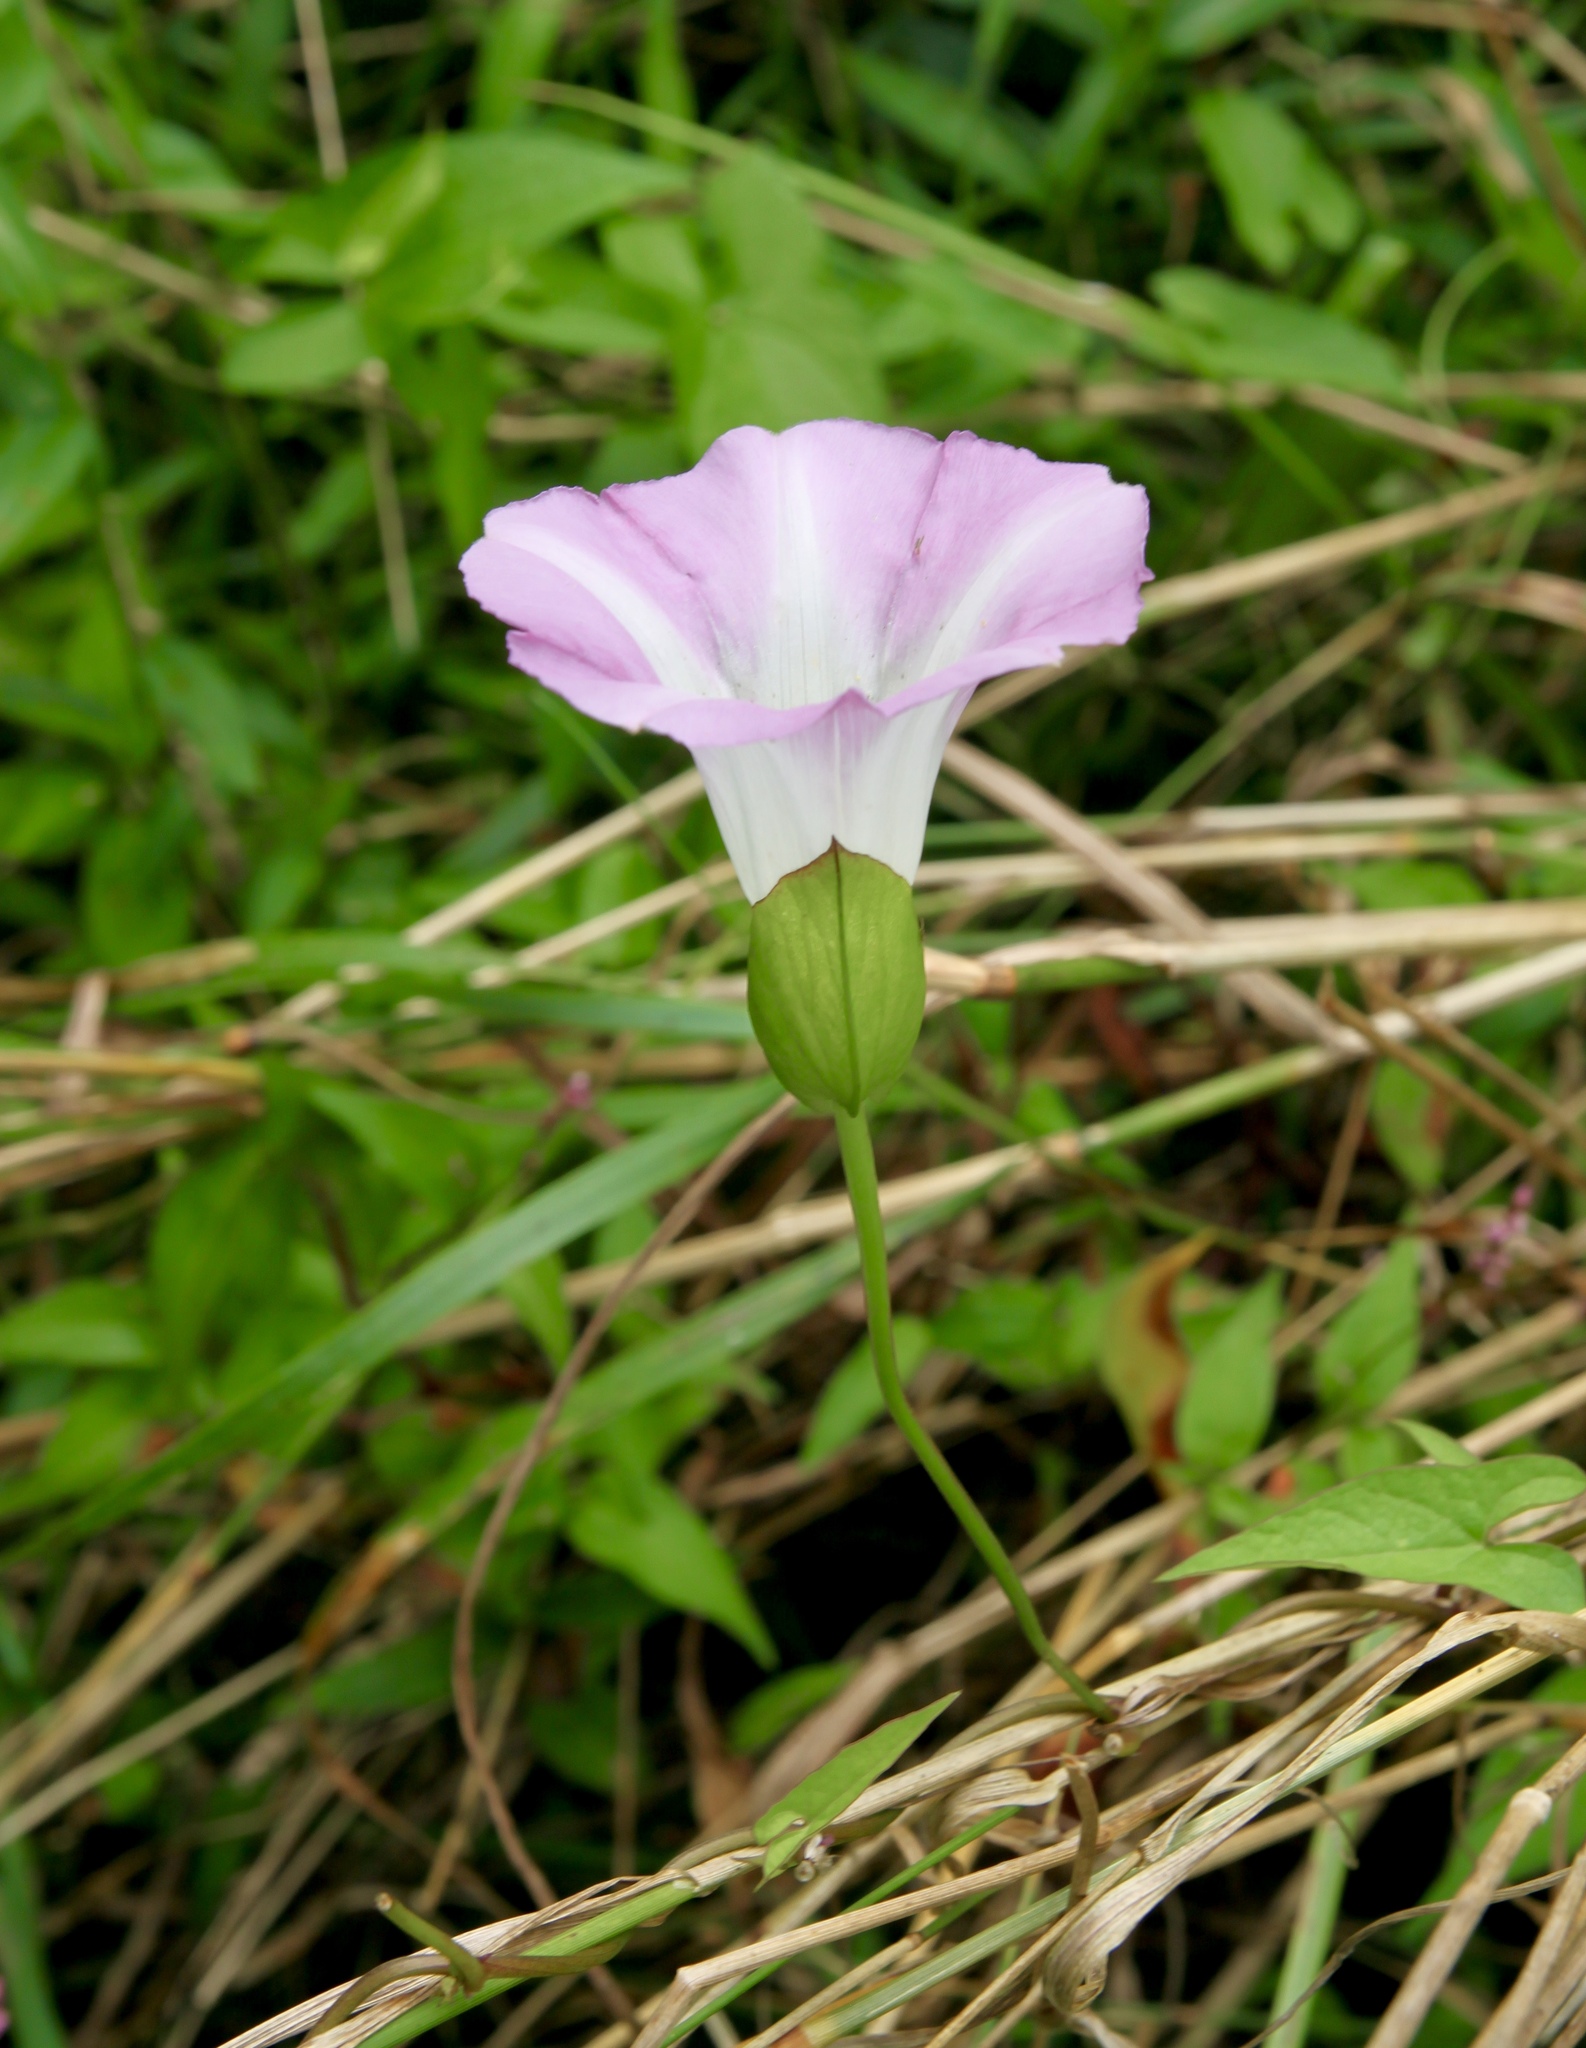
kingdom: Plantae
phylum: Tracheophyta
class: Magnoliopsida
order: Solanales
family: Convolvulaceae
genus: Calystegia
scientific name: Calystegia sepium
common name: Hedge bindweed
